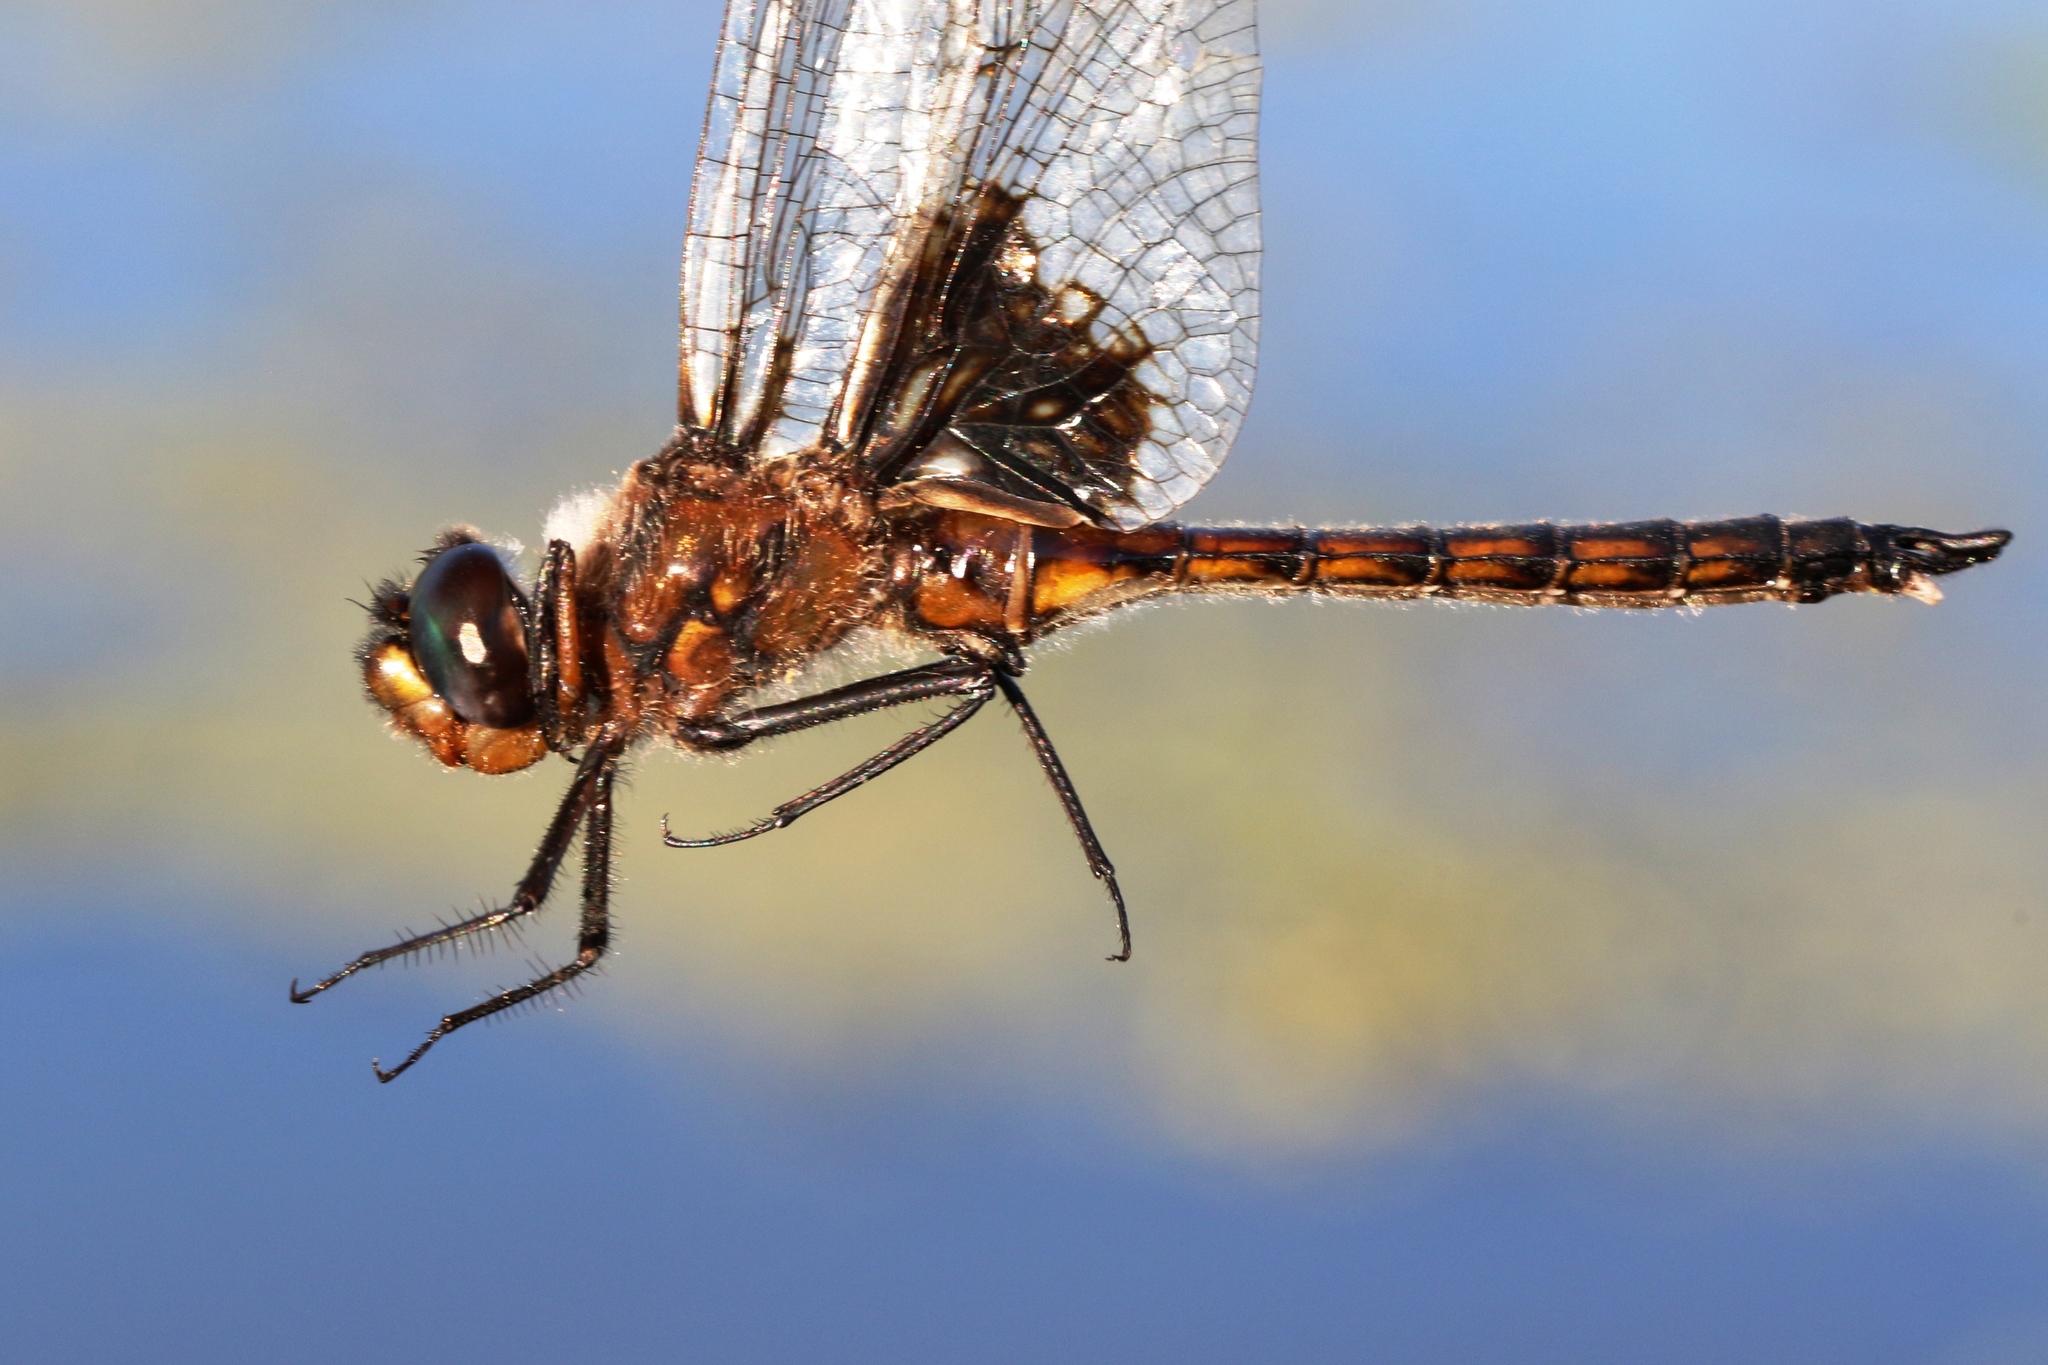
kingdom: Animalia
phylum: Arthropoda
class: Insecta
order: Odonata
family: Corduliidae
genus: Epitheca
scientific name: Epitheca cynosura
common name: Common baskettail
